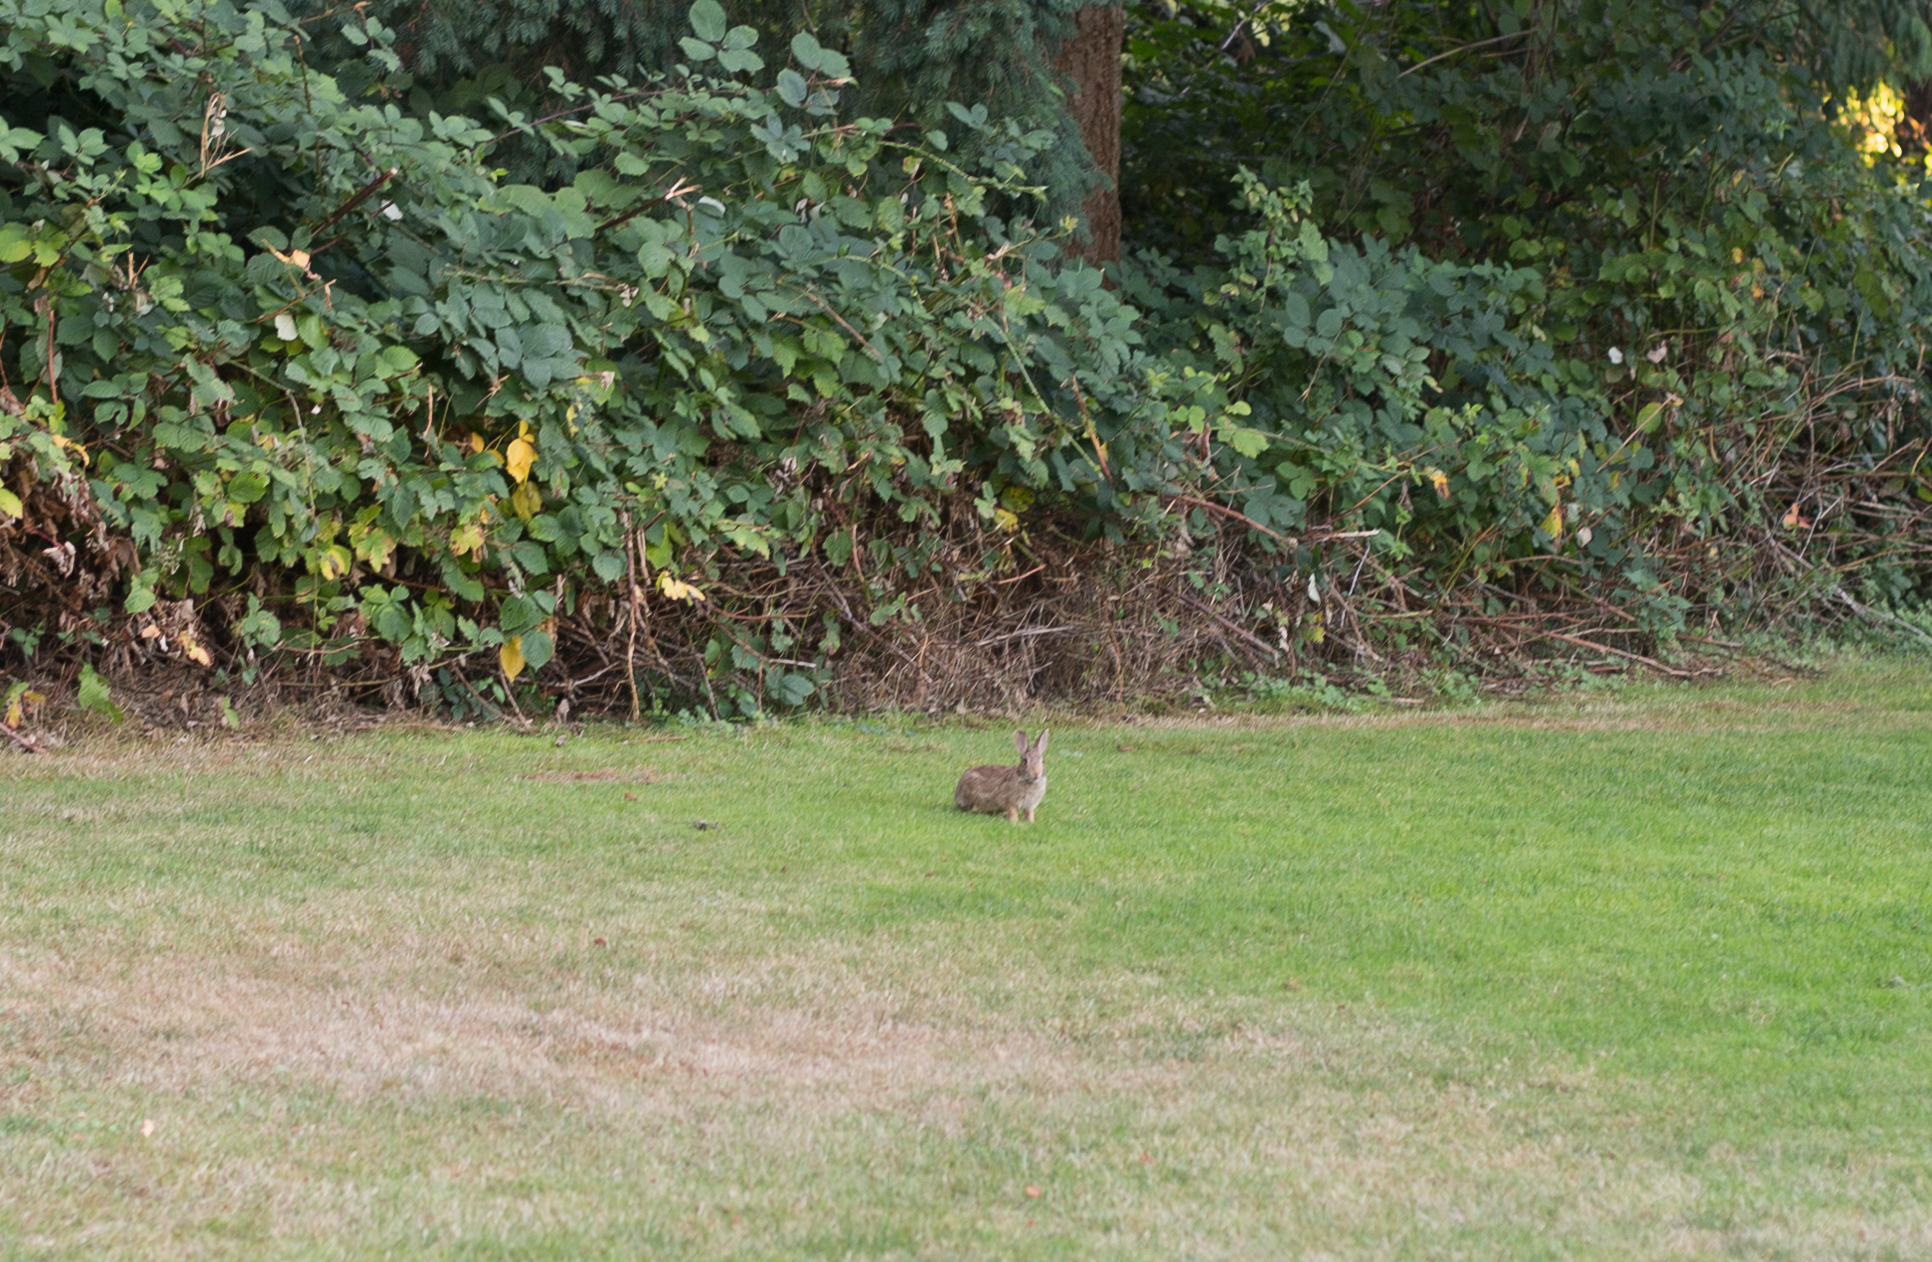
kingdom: Animalia
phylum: Chordata
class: Mammalia
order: Lagomorpha
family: Leporidae
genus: Sylvilagus
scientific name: Sylvilagus floridanus
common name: Eastern cottontail
